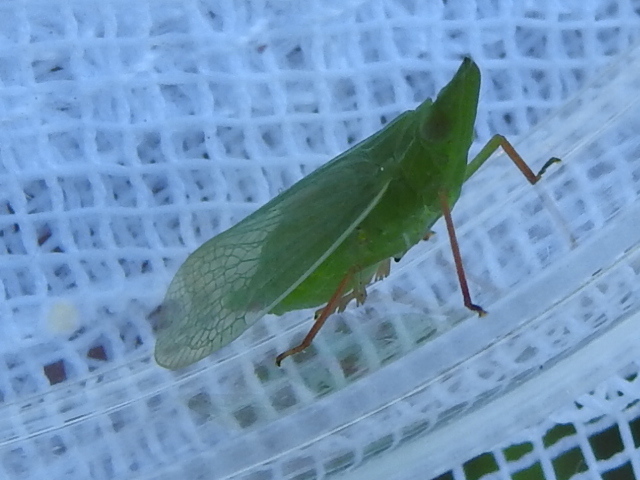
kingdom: Animalia
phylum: Arthropoda
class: Insecta
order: Hemiptera
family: Dictyopharidae
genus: Rhynchomitra
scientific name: Rhynchomitra recurva
